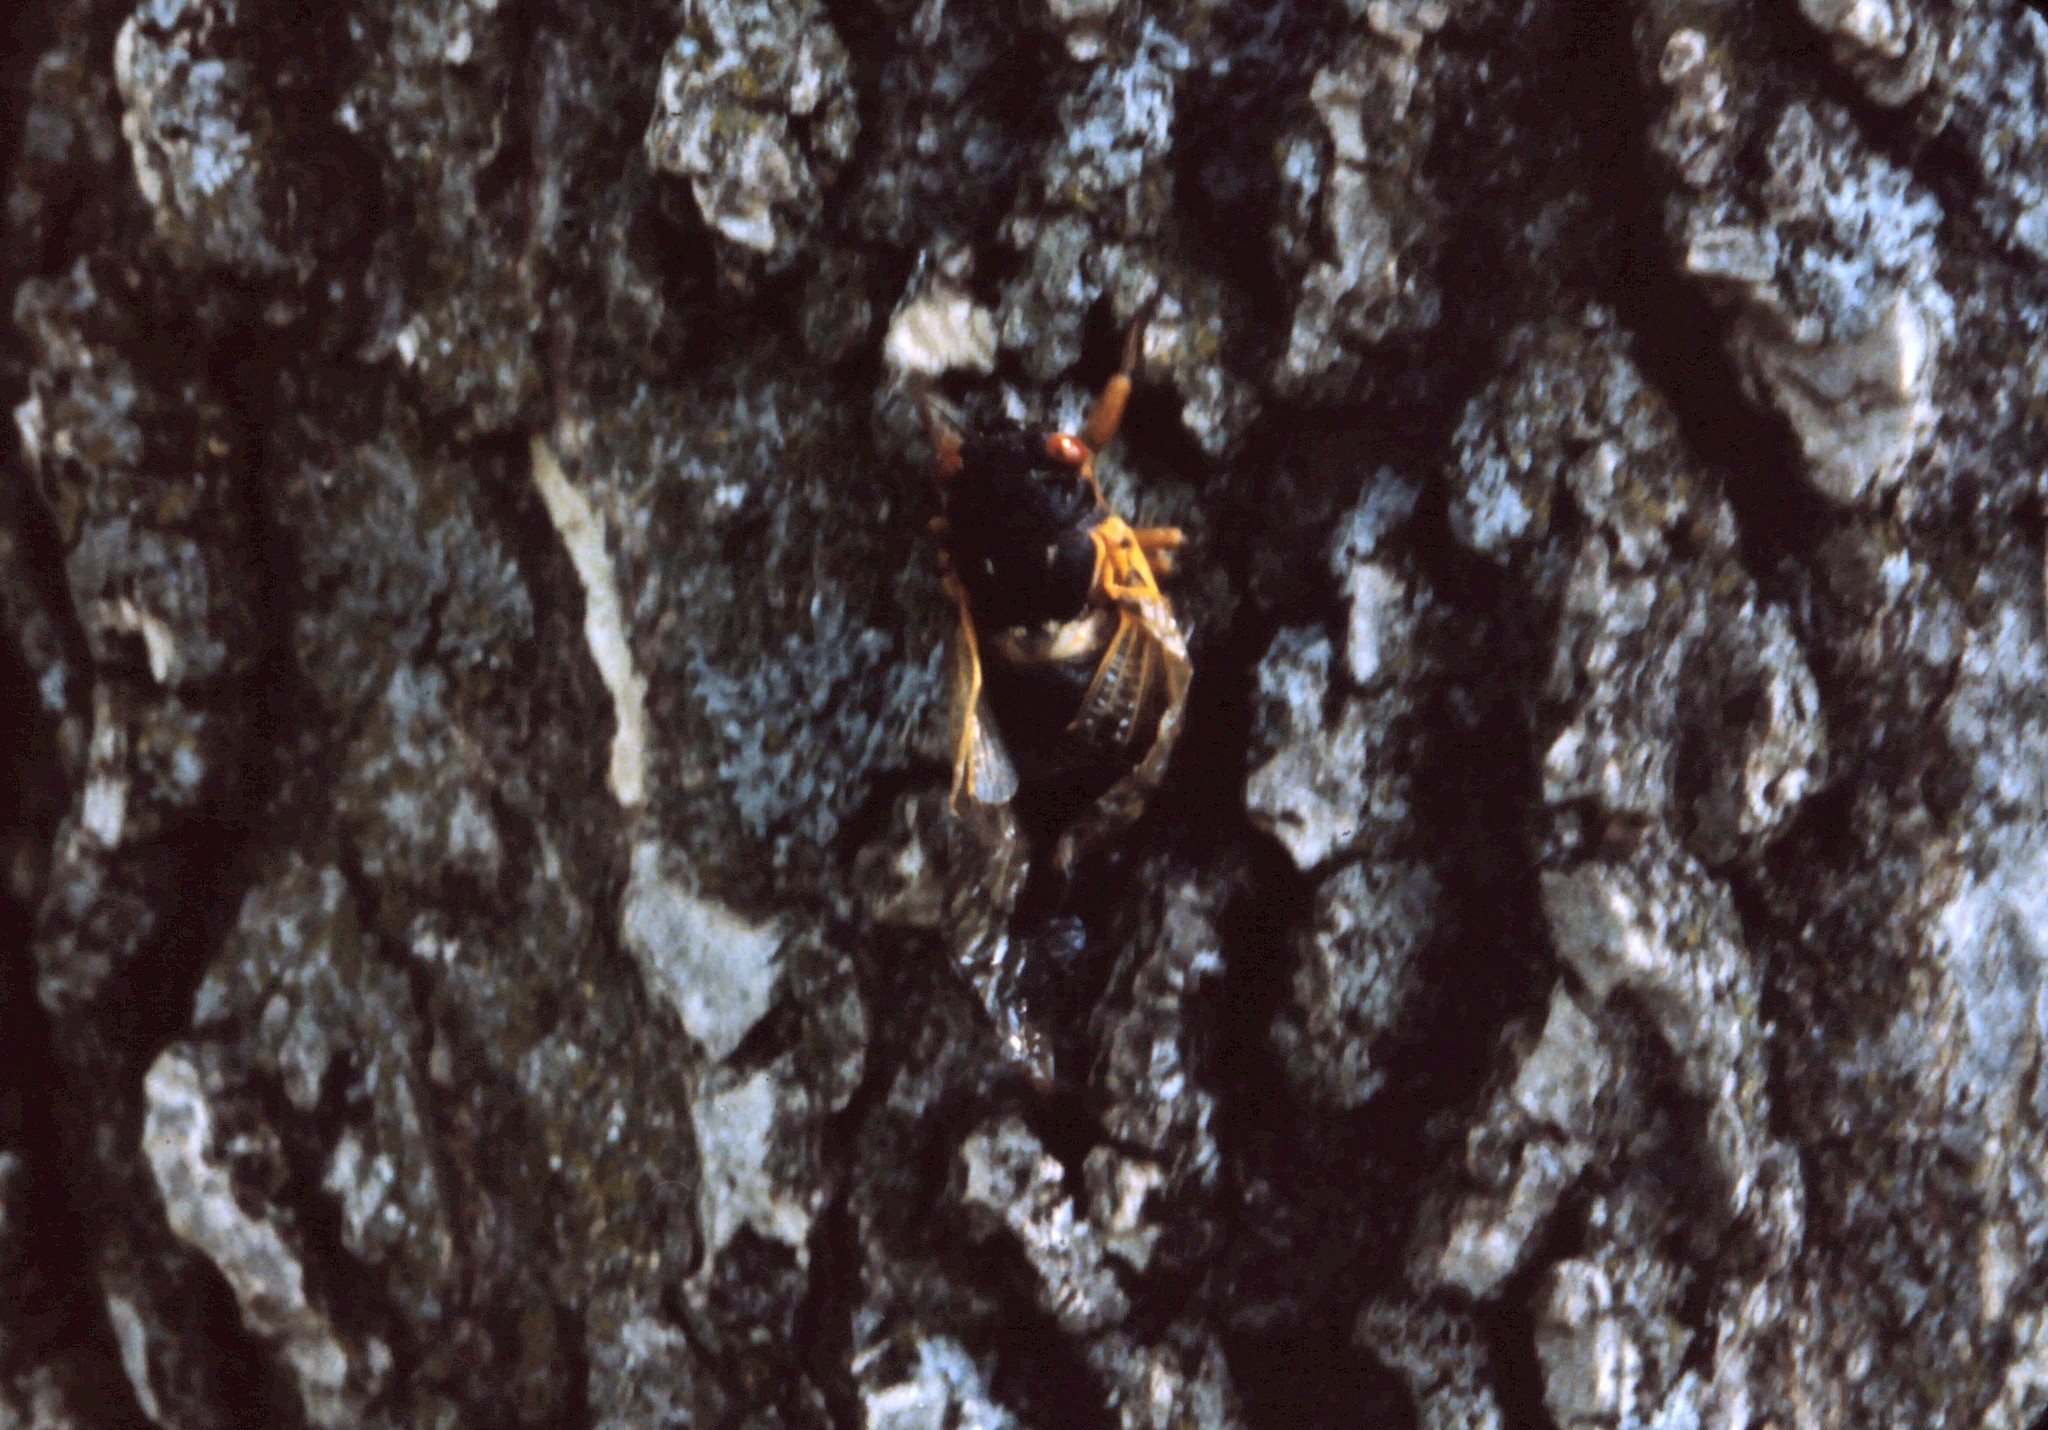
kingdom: Animalia
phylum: Arthropoda
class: Insecta
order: Hemiptera
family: Cicadidae
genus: Magicicada
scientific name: Magicicada
